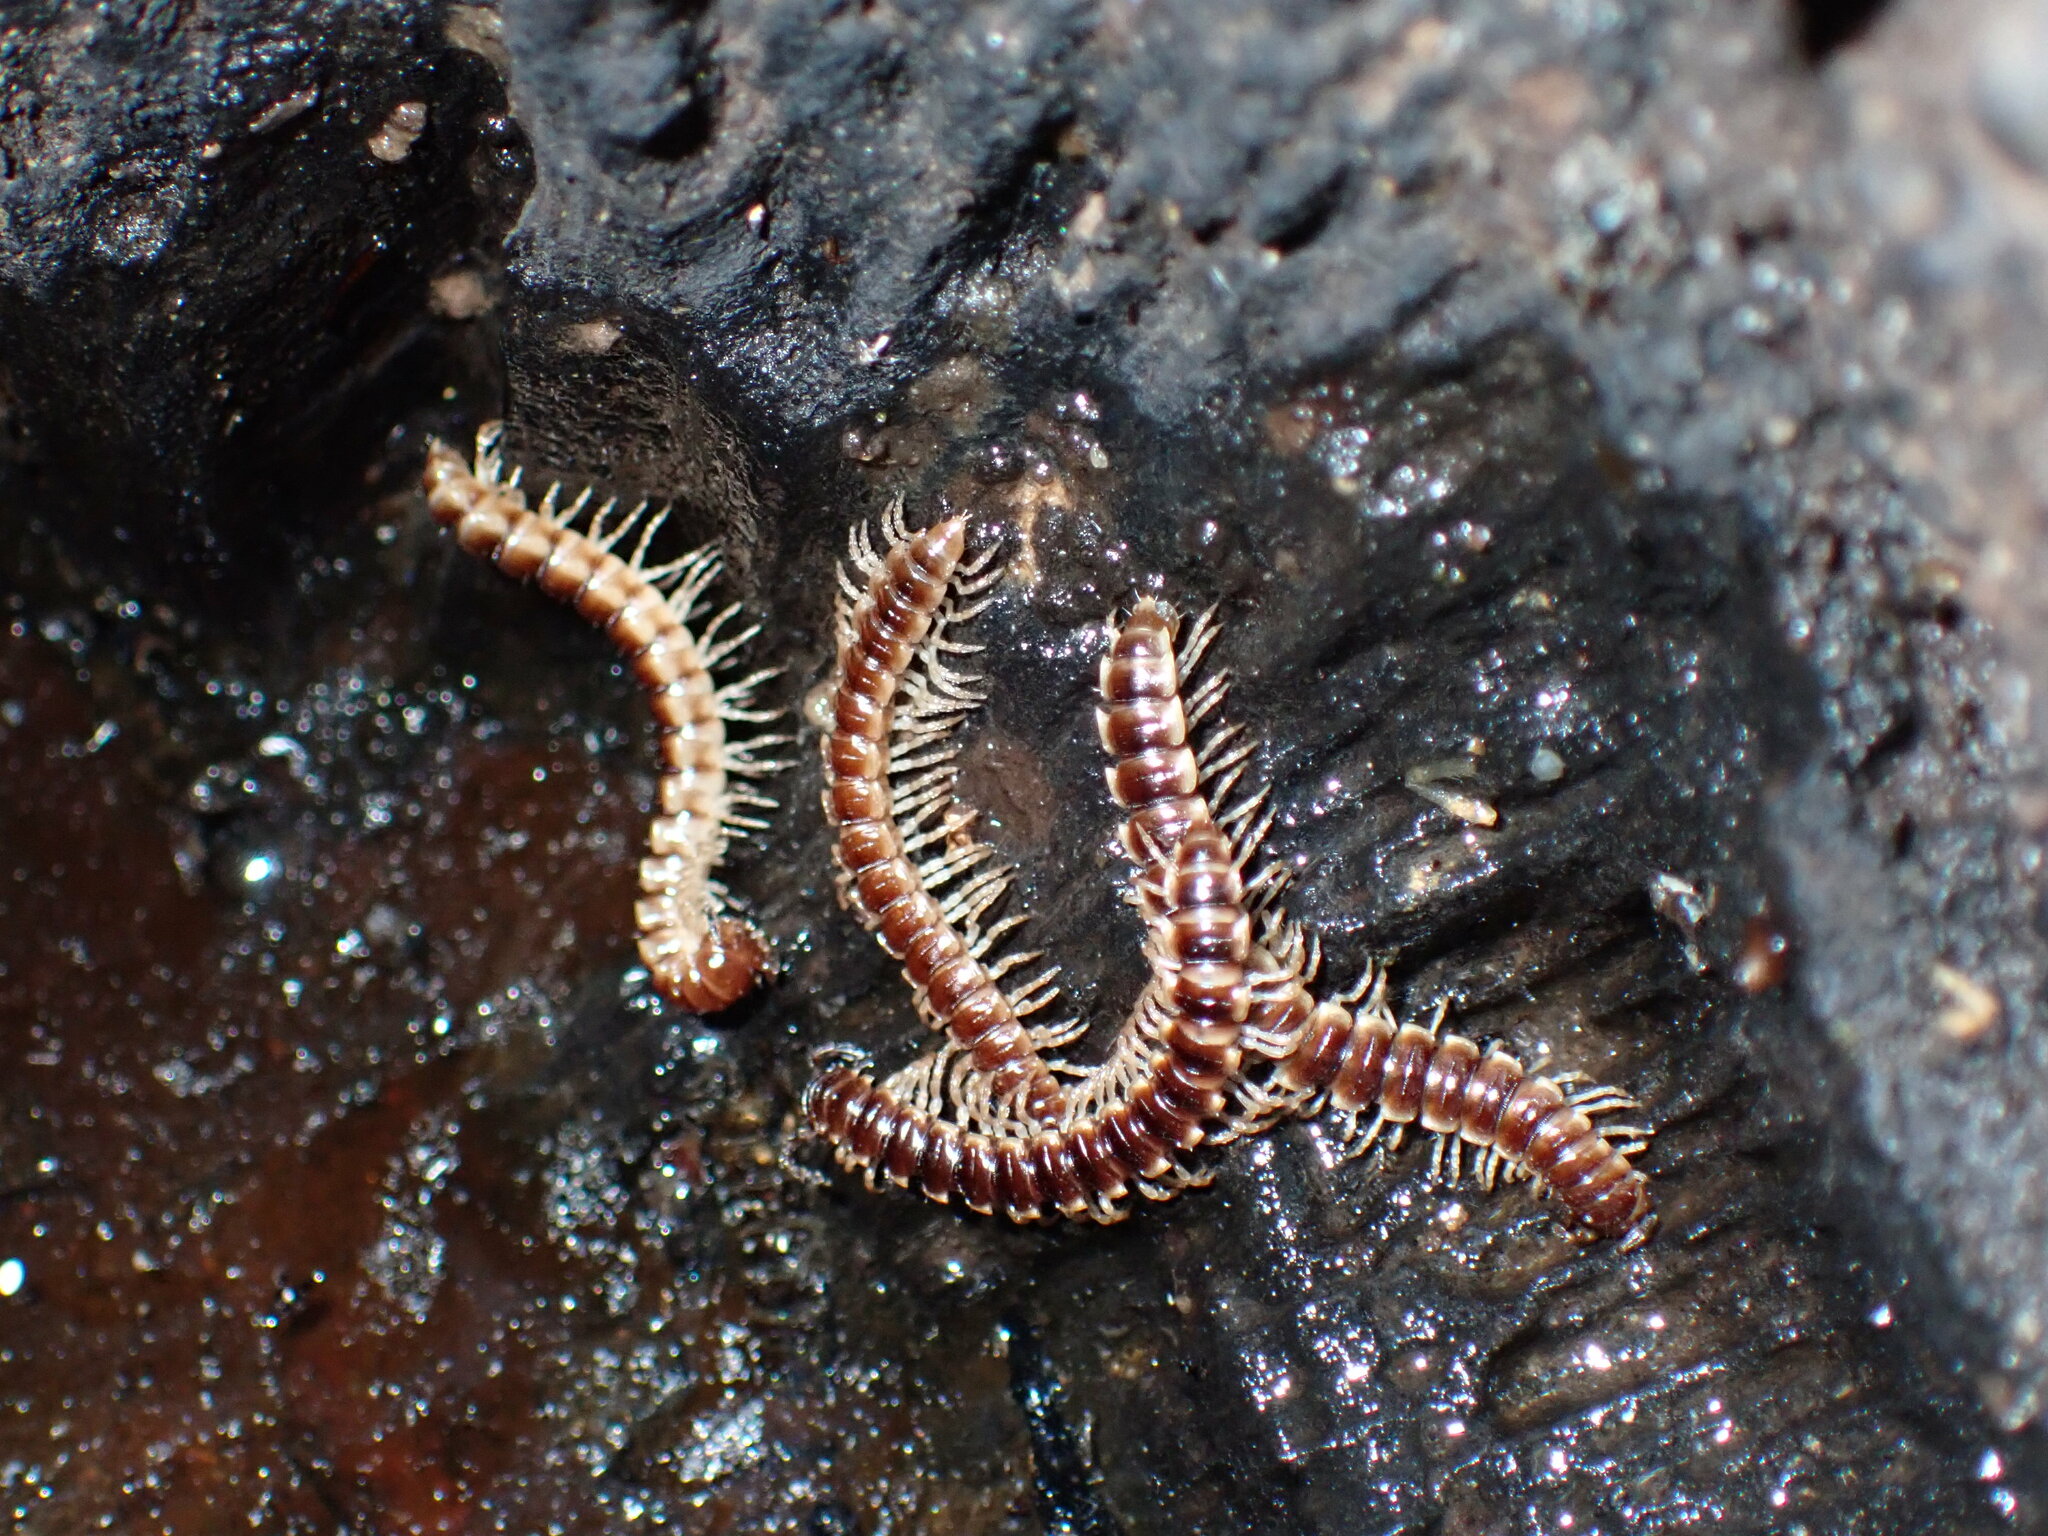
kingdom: Animalia
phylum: Arthropoda
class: Diplopoda
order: Polydesmida
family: Paradoxosomatidae
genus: Oxidus
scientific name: Oxidus gracilis
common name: Greenhouse millipede
